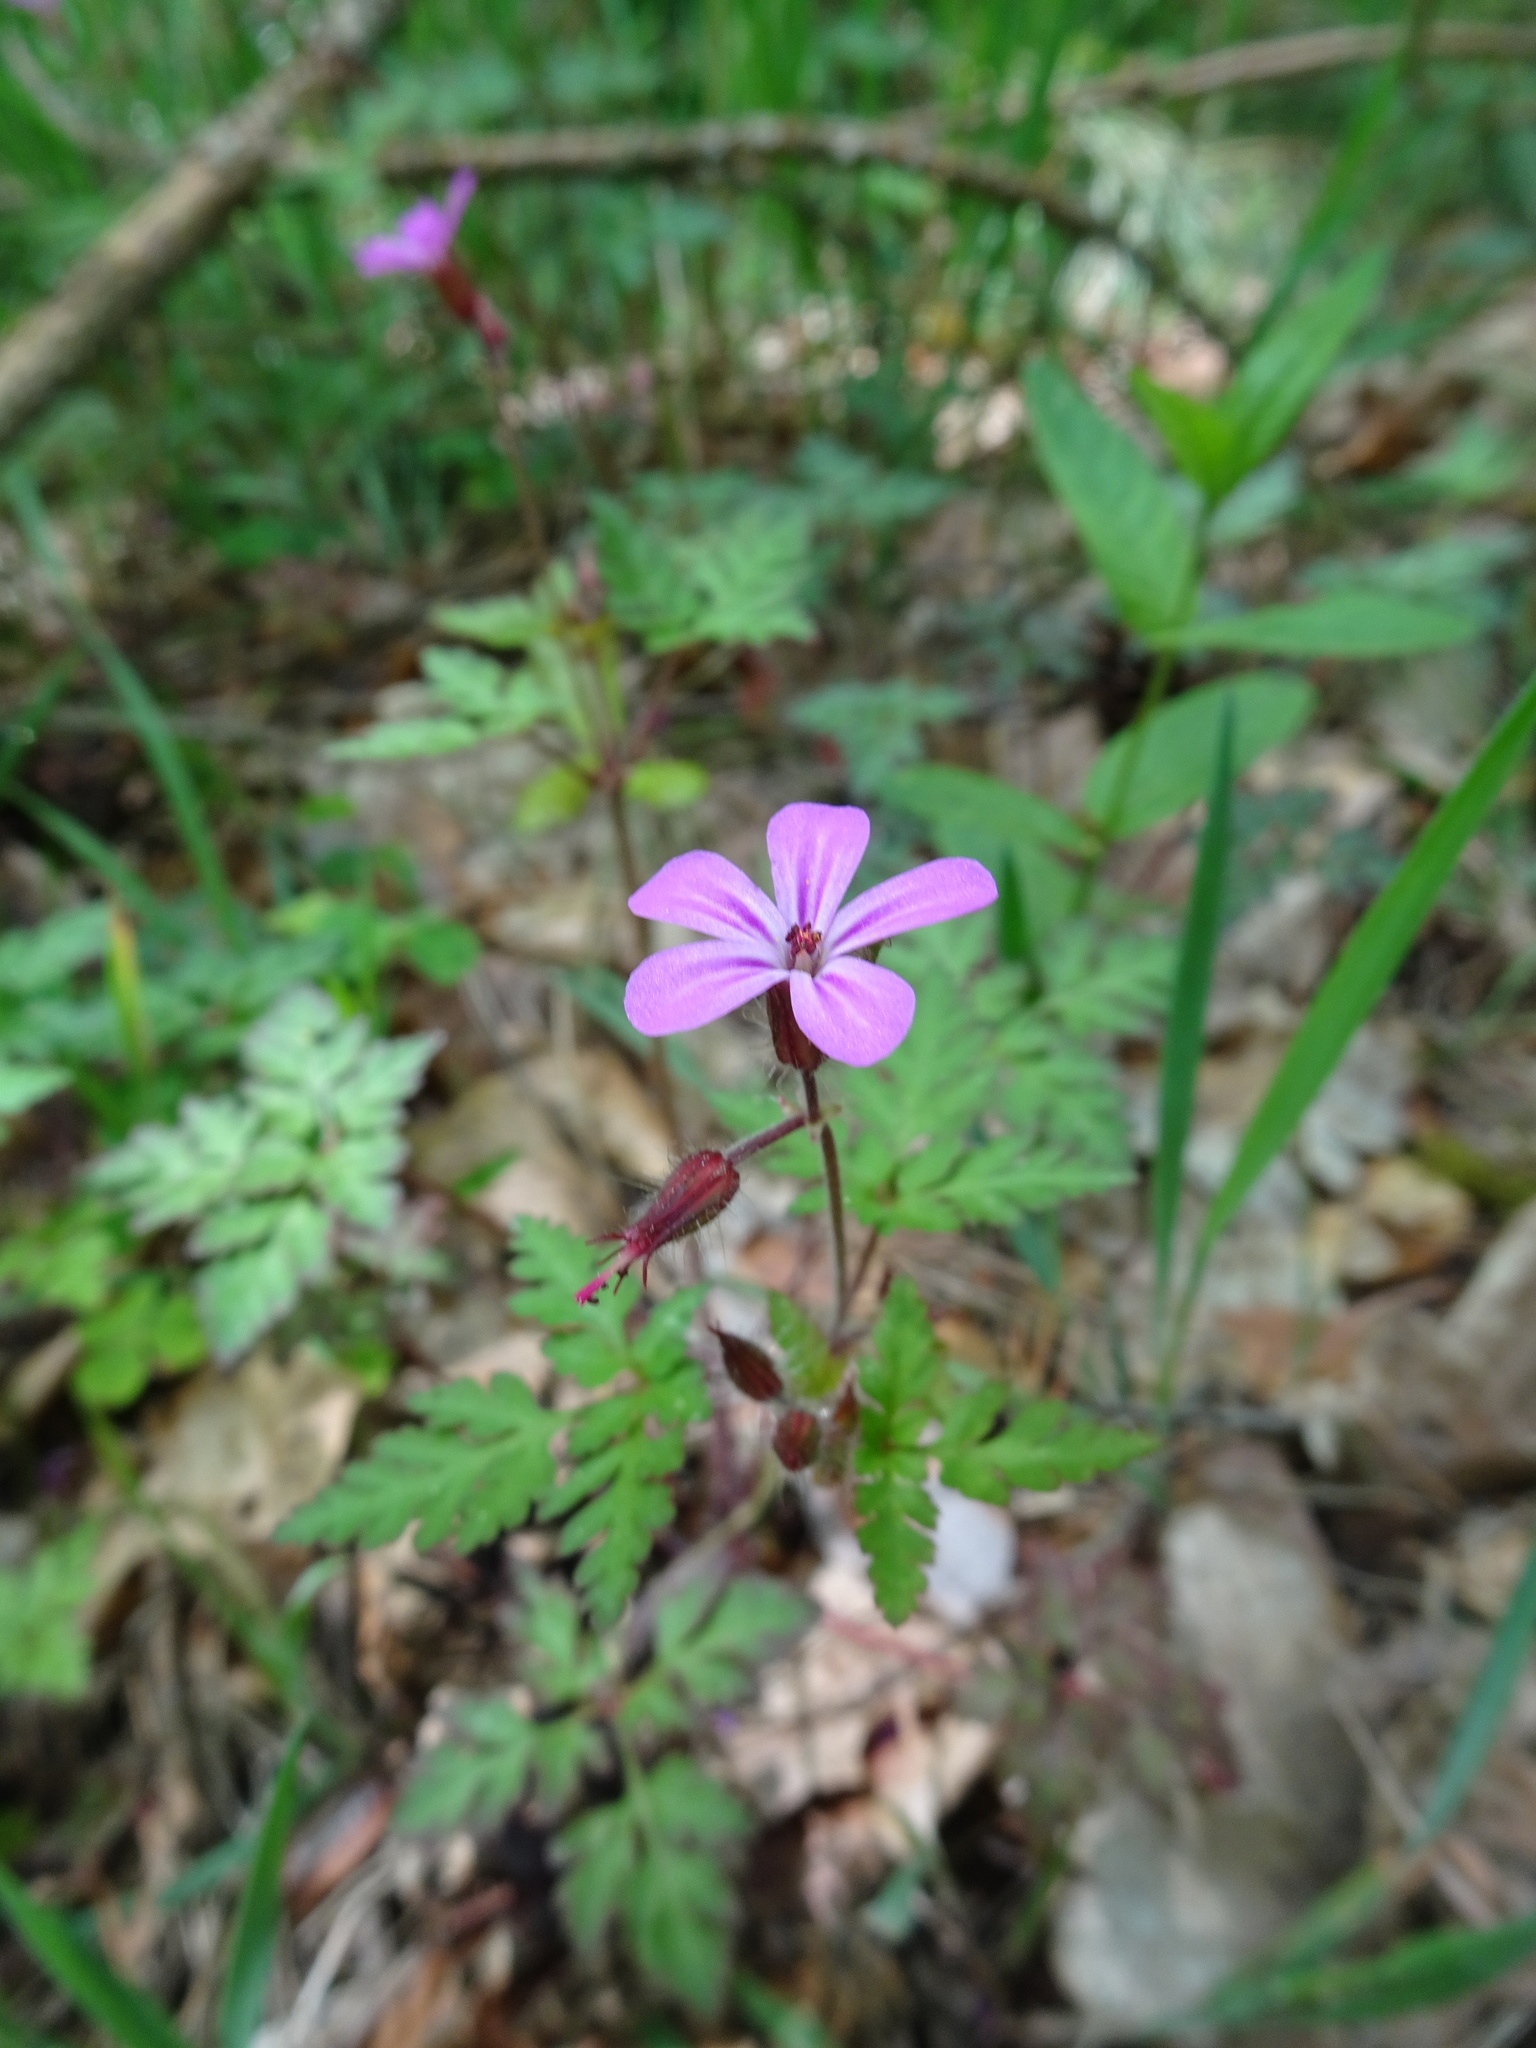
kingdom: Plantae
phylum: Tracheophyta
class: Magnoliopsida
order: Geraniales
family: Geraniaceae
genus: Geranium
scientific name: Geranium robertianum
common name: Herb-robert
